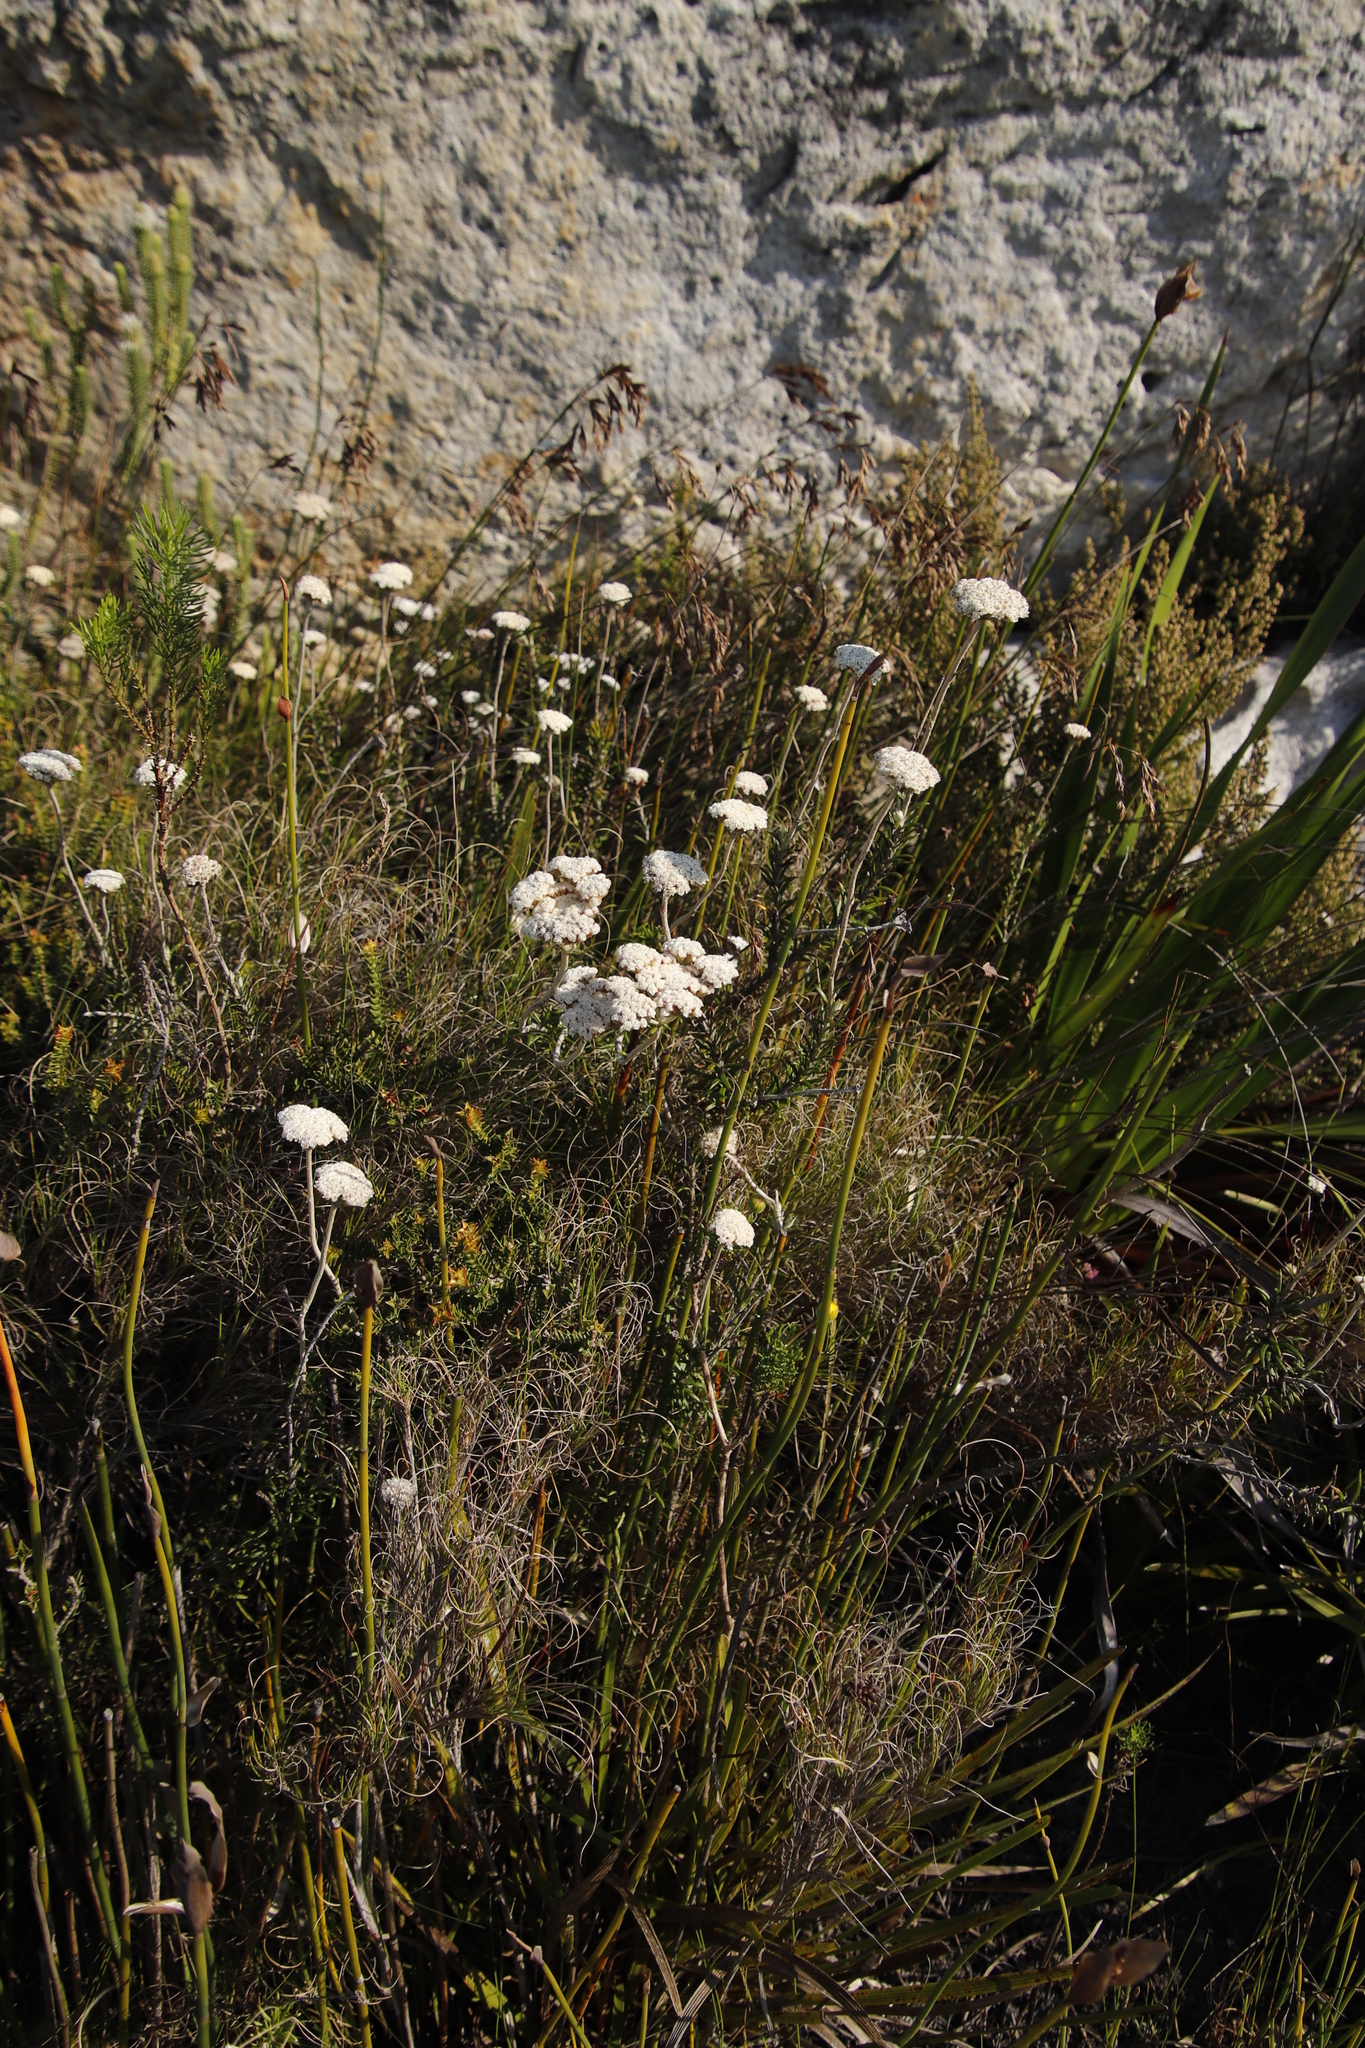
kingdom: Plantae
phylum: Tracheophyta
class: Magnoliopsida
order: Asterales
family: Asteraceae
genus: Anaxeton
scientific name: Anaxeton arborescens
